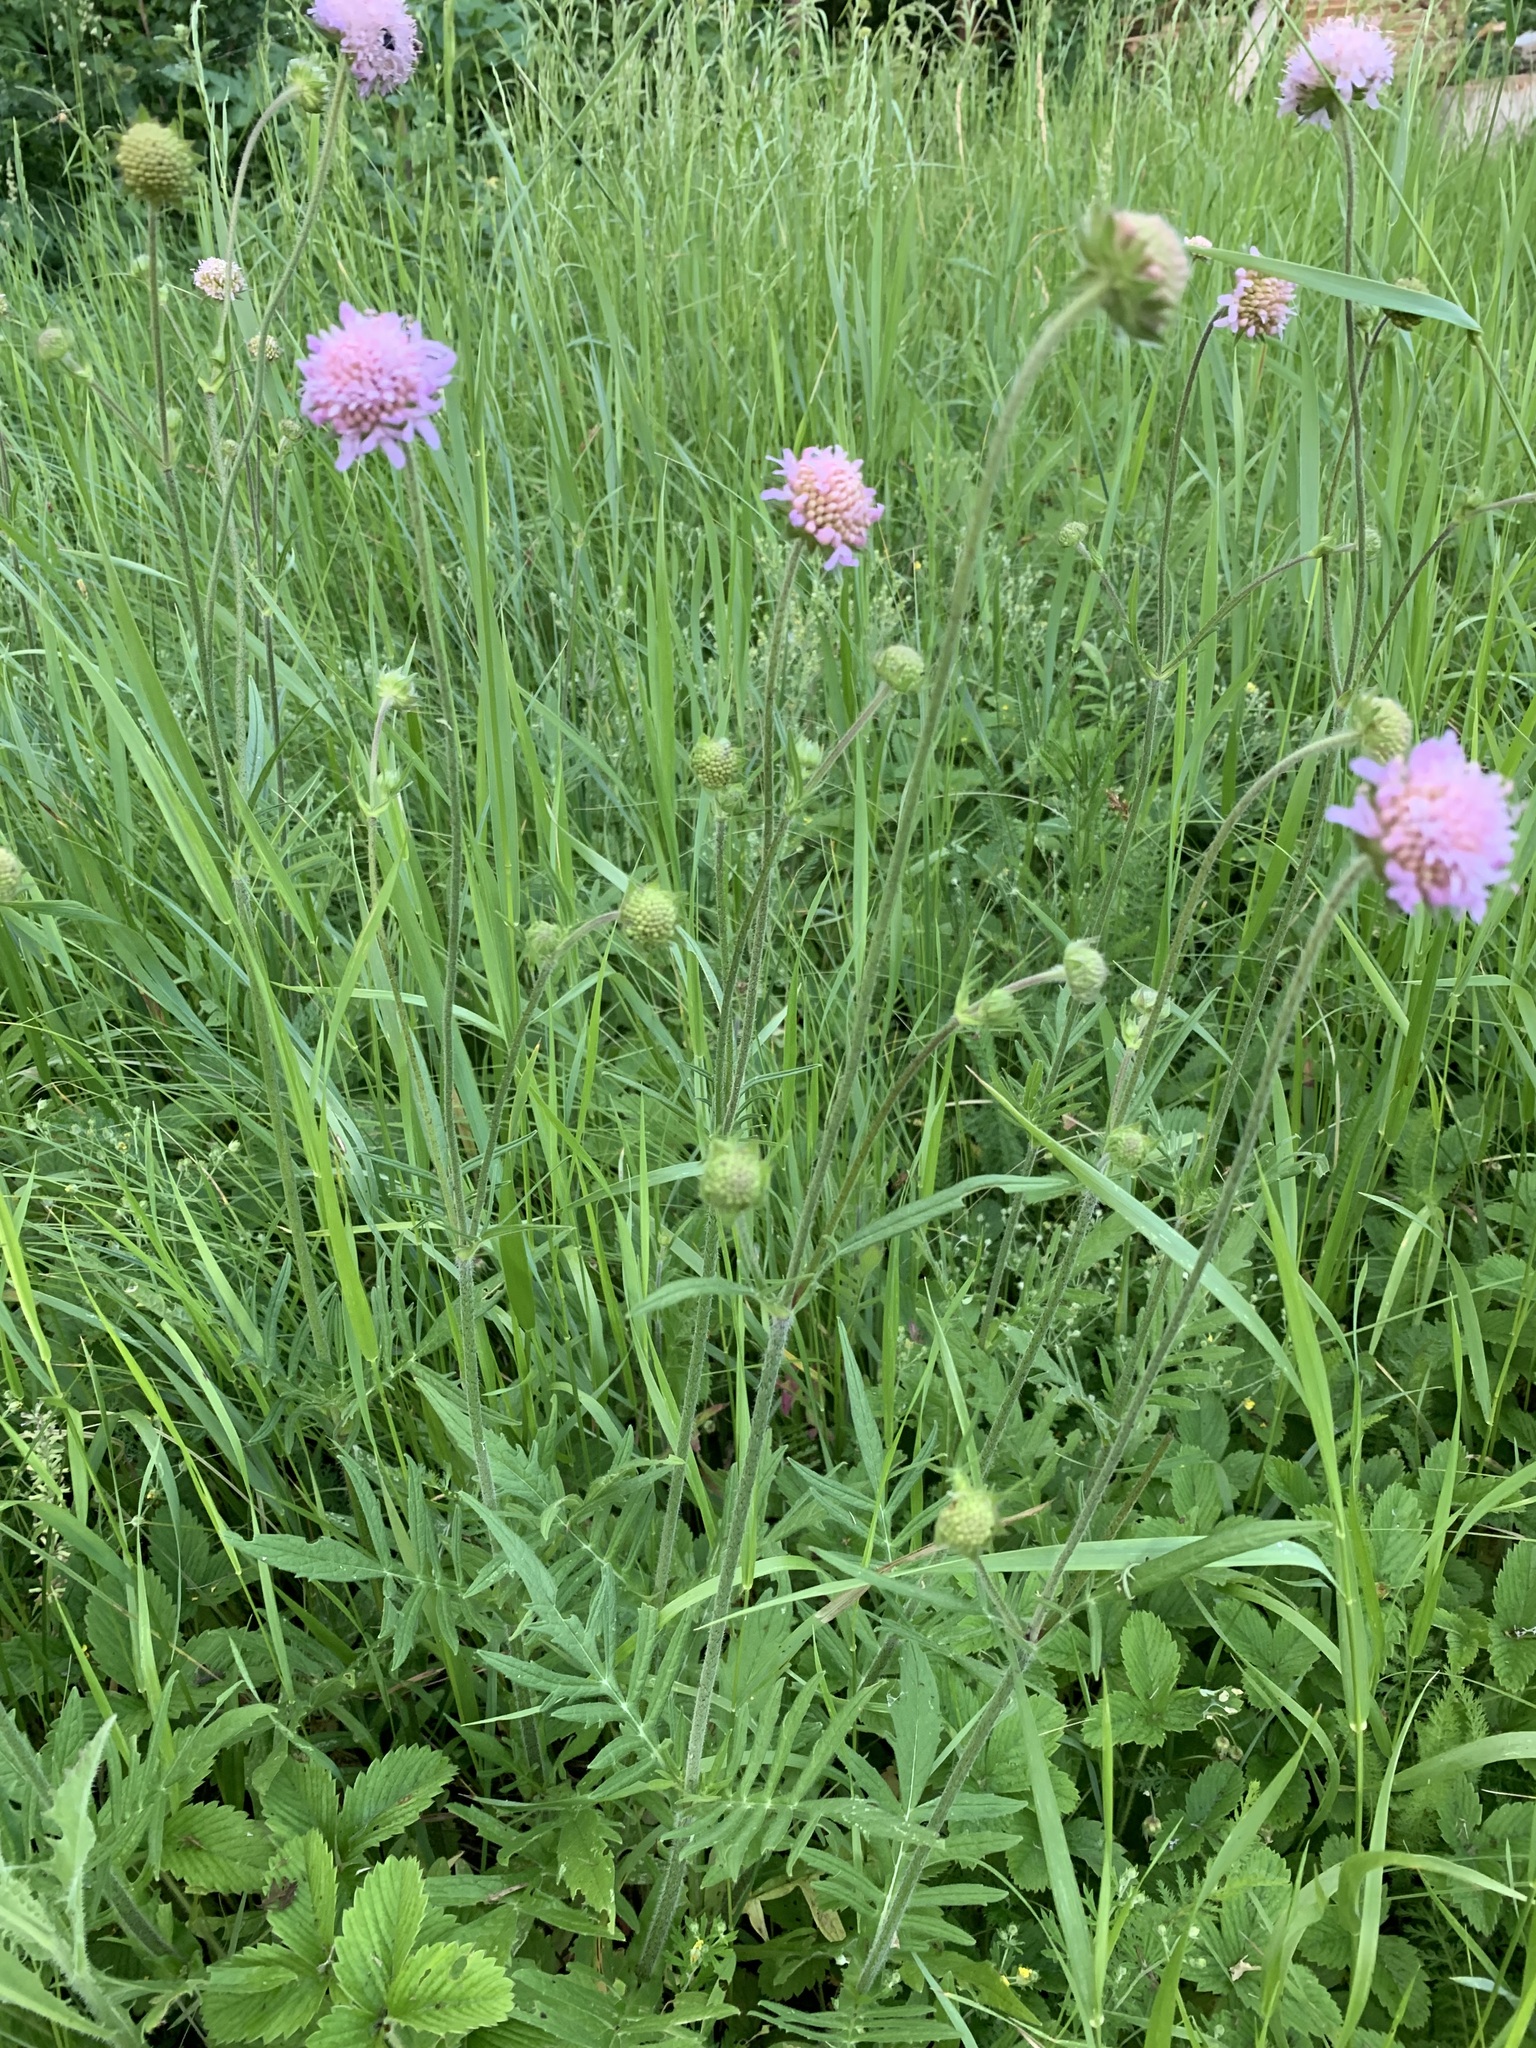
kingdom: Plantae
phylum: Tracheophyta
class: Magnoliopsida
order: Dipsacales
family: Caprifoliaceae
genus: Knautia
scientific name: Knautia arvensis
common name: Field scabiosa
